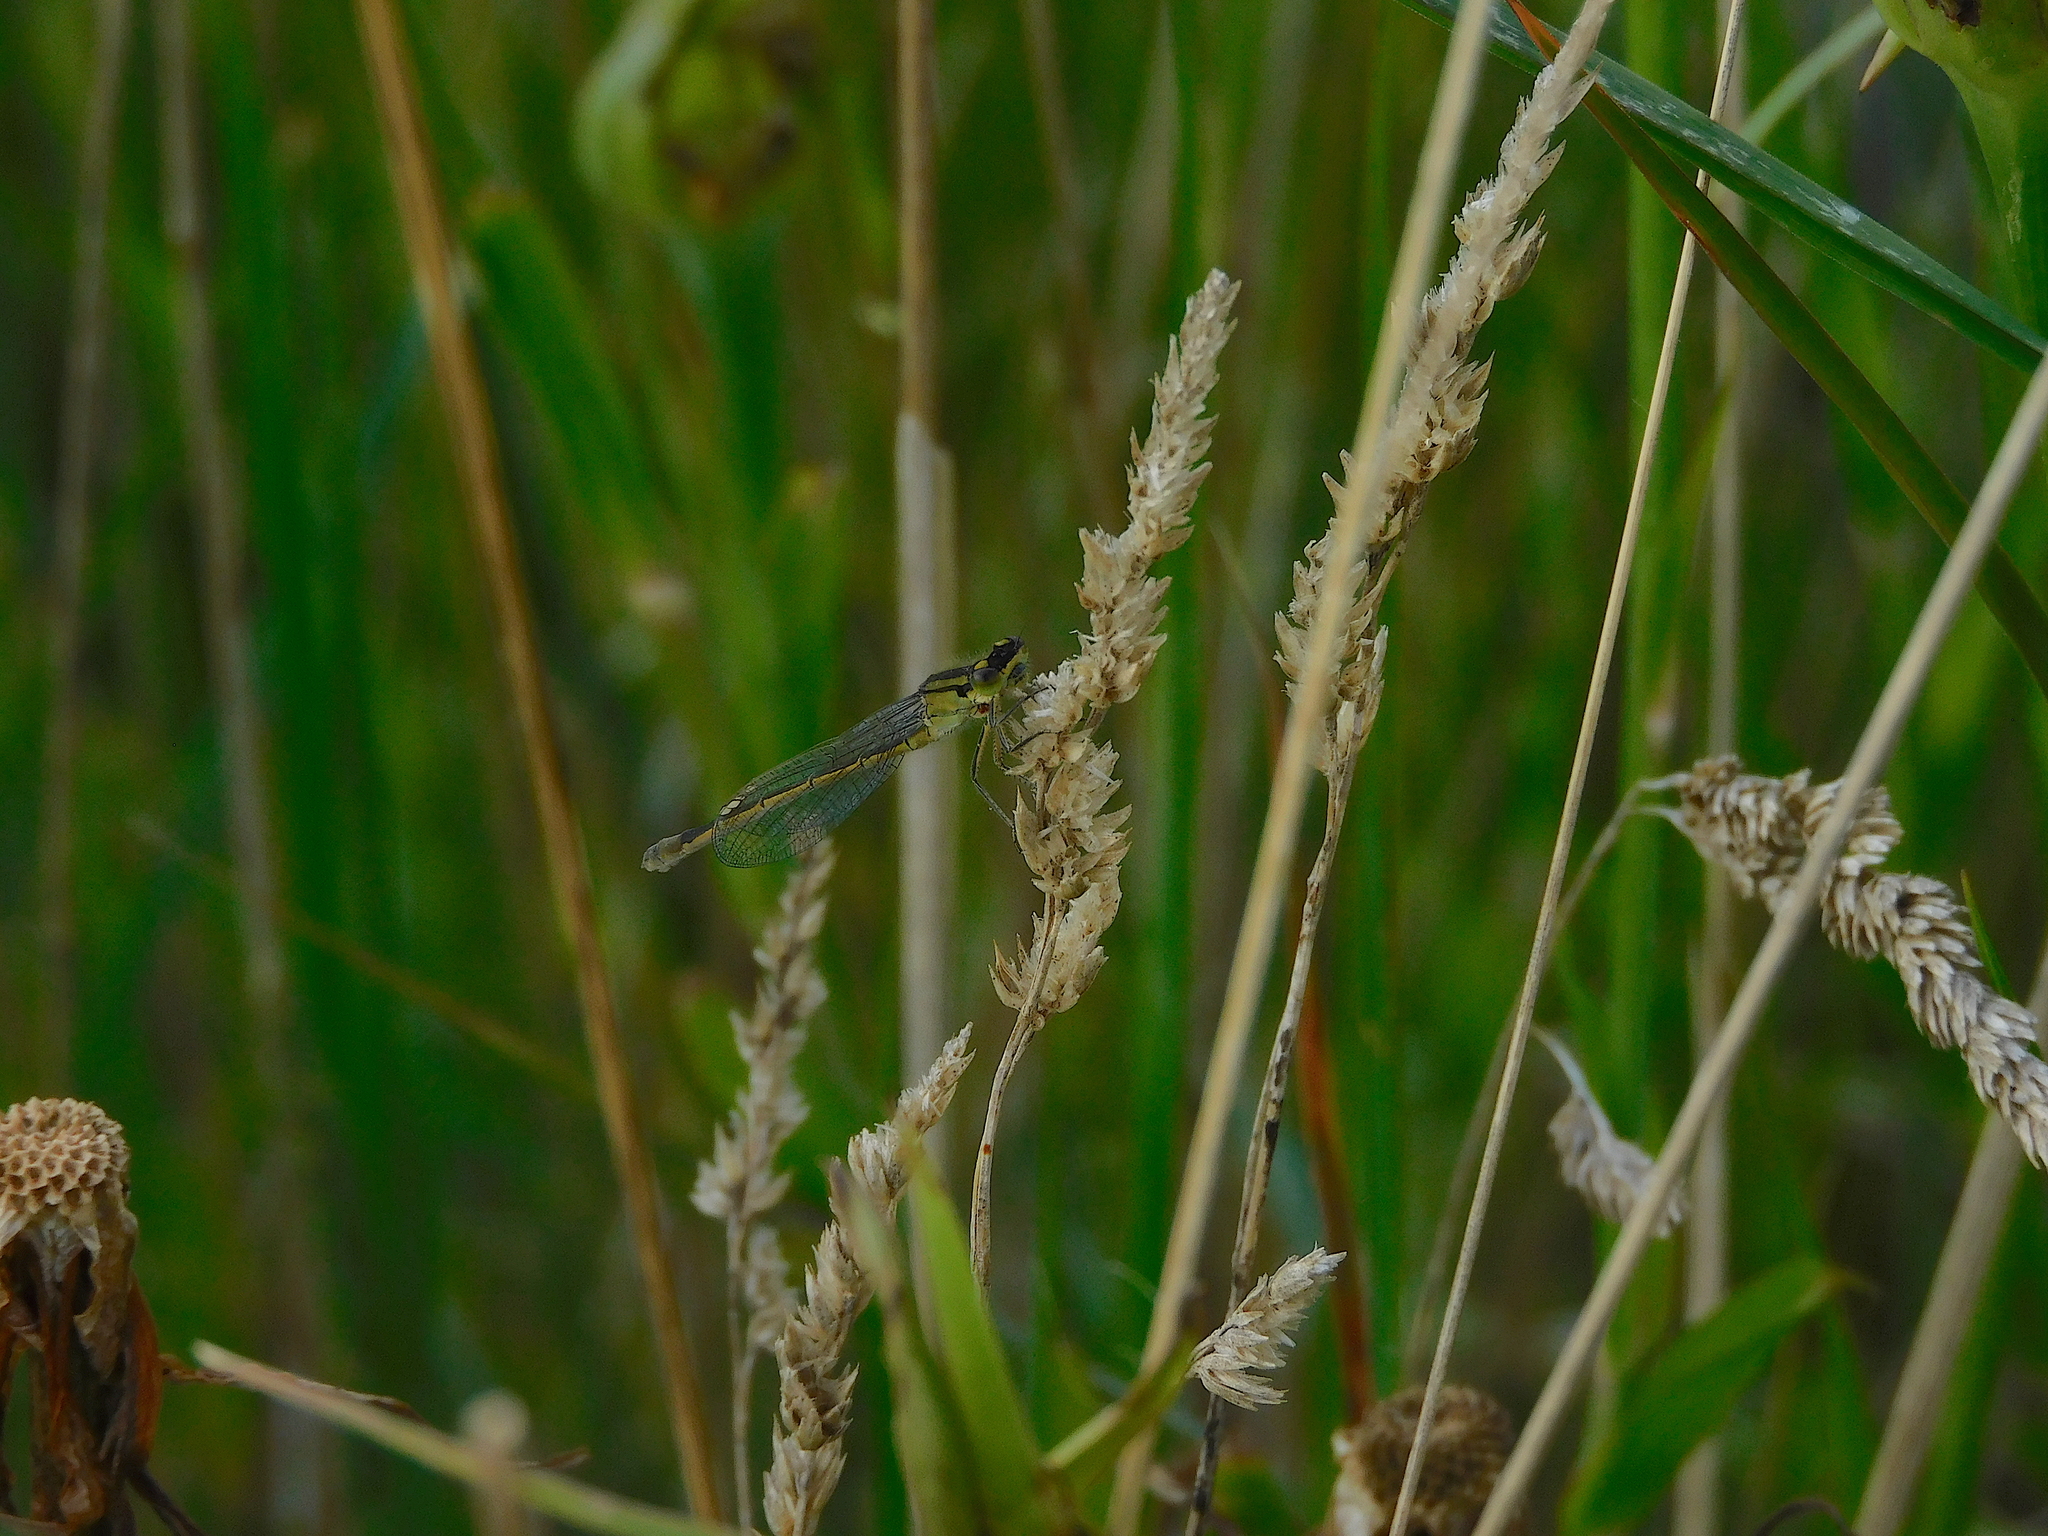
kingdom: Animalia
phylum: Arthropoda
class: Insecta
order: Odonata
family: Coenagrionidae
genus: Ischnura
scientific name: Ischnura heterosticta
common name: Common bluetail
